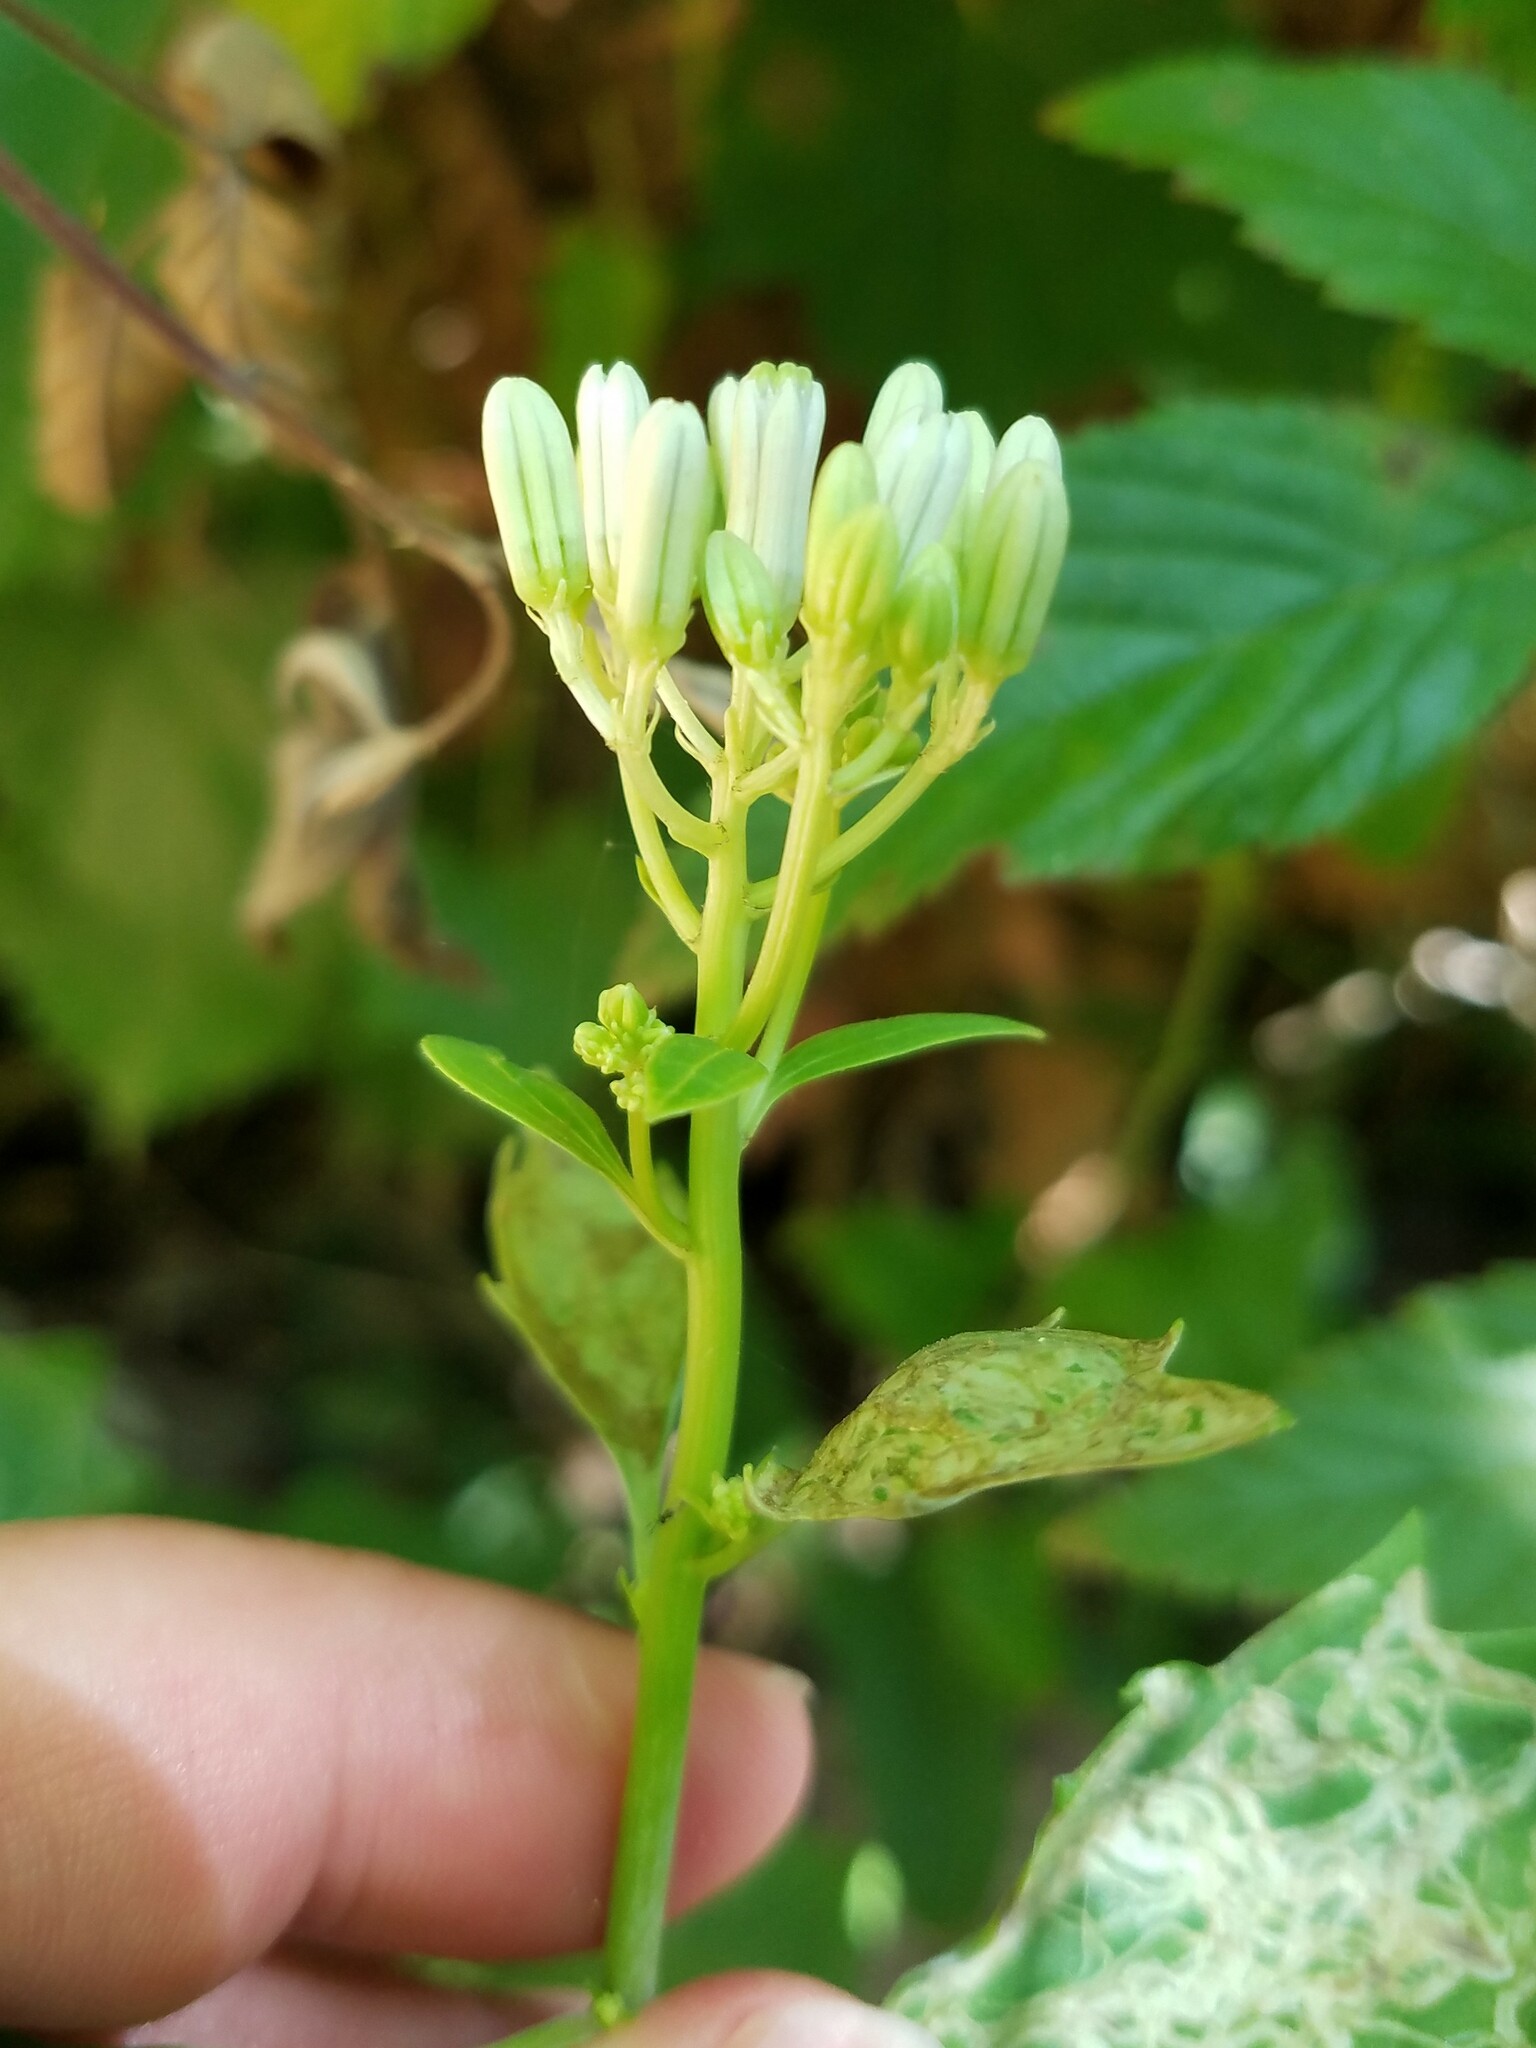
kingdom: Plantae
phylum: Tracheophyta
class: Magnoliopsida
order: Asterales
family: Asteraceae
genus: Arnoglossum
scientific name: Arnoglossum atriplicifolium
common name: Pale indian-plantain
